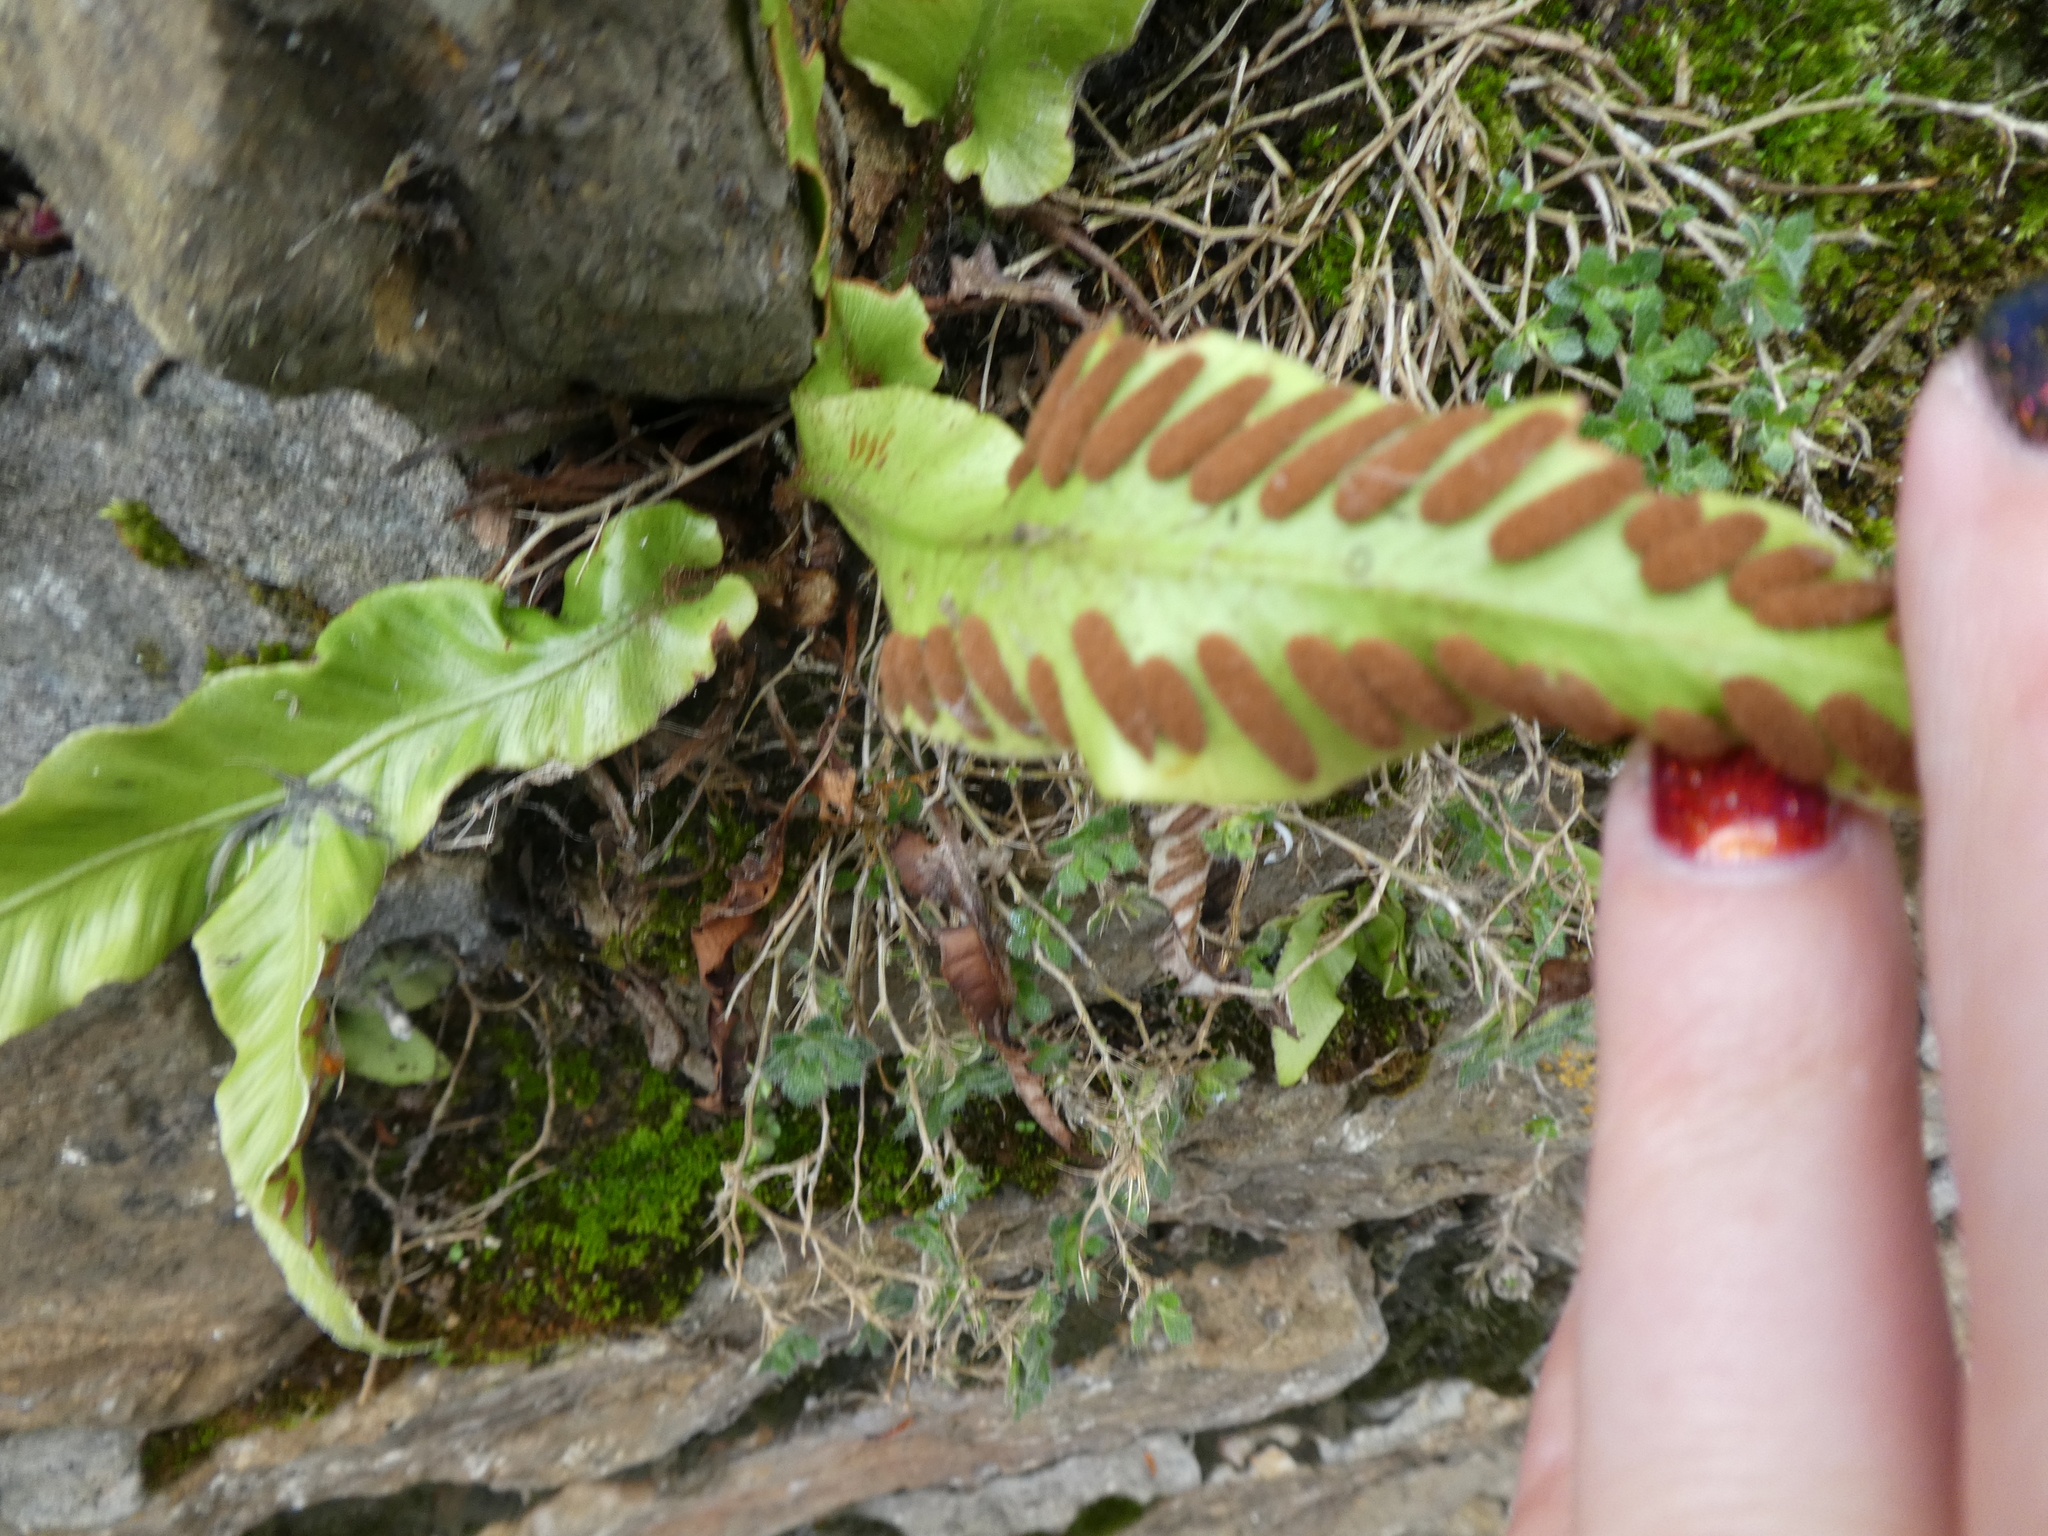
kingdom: Plantae
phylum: Tracheophyta
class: Polypodiopsida
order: Polypodiales
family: Aspleniaceae
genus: Asplenium
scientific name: Asplenium scolopendrium
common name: Hart's-tongue fern
